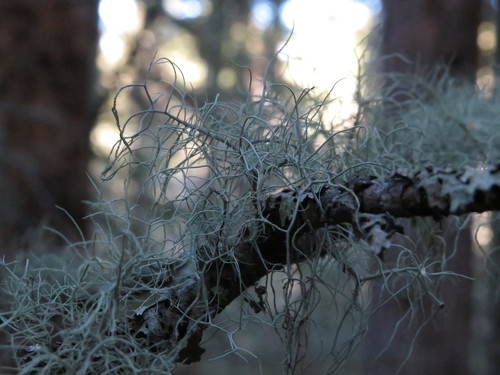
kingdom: Fungi
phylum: Ascomycota
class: Lecanoromycetes
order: Lecanorales
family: Parmeliaceae
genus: Usnea
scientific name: Usnea
